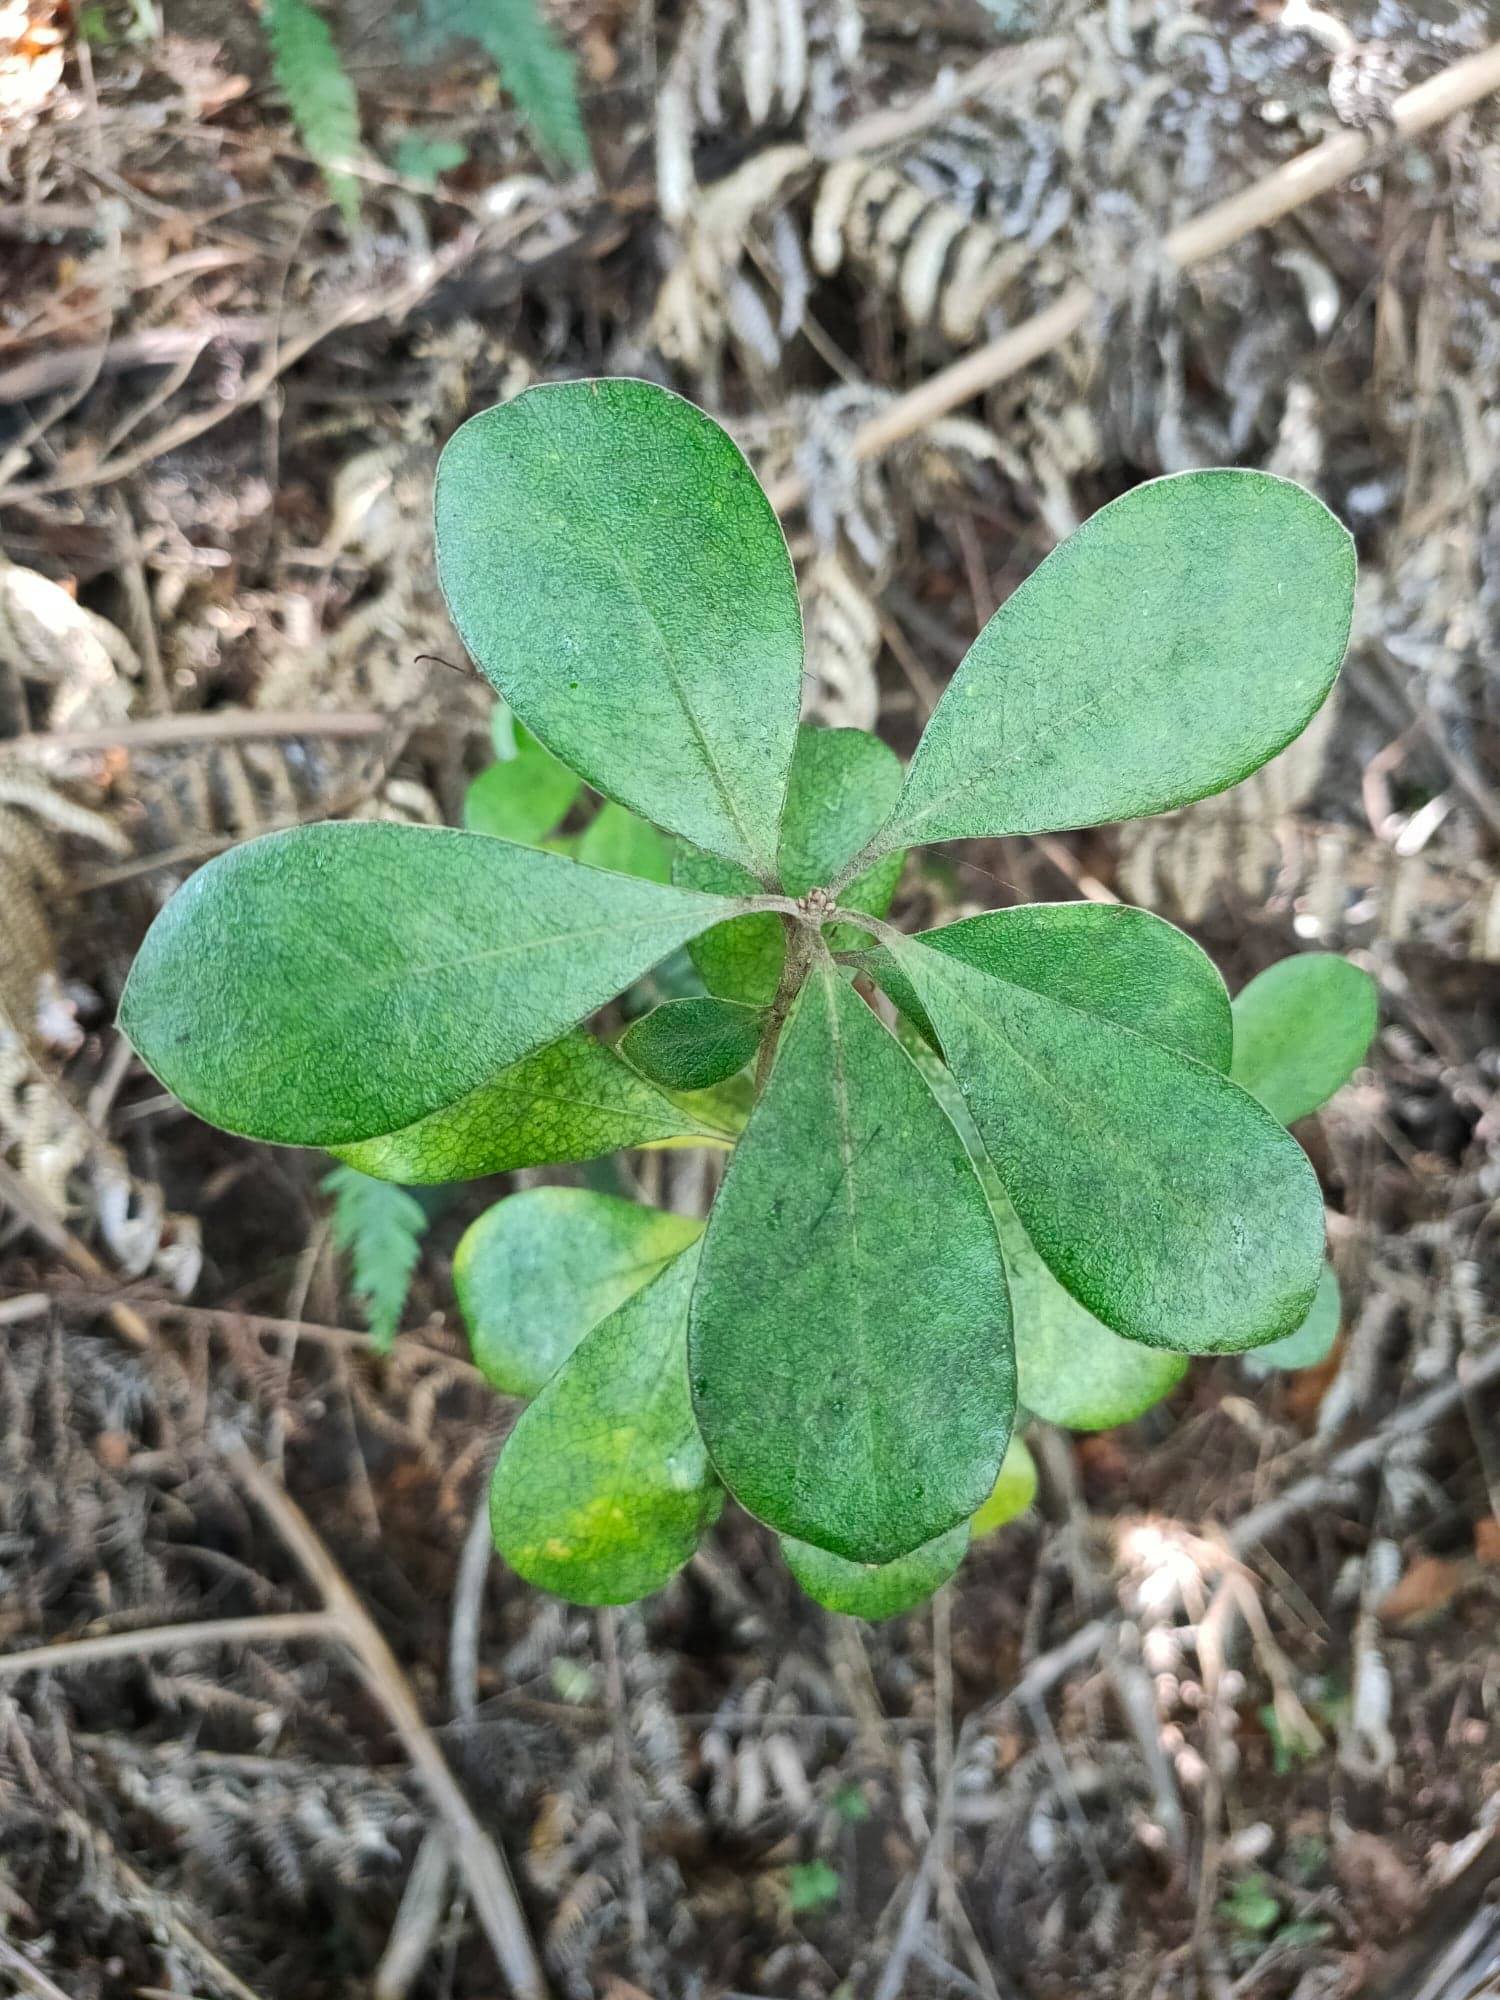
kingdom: Plantae
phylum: Tracheophyta
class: Magnoliopsida
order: Apiales
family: Pittosporaceae
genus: Pittosporum
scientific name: Pittosporum crassifolium
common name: Karo
